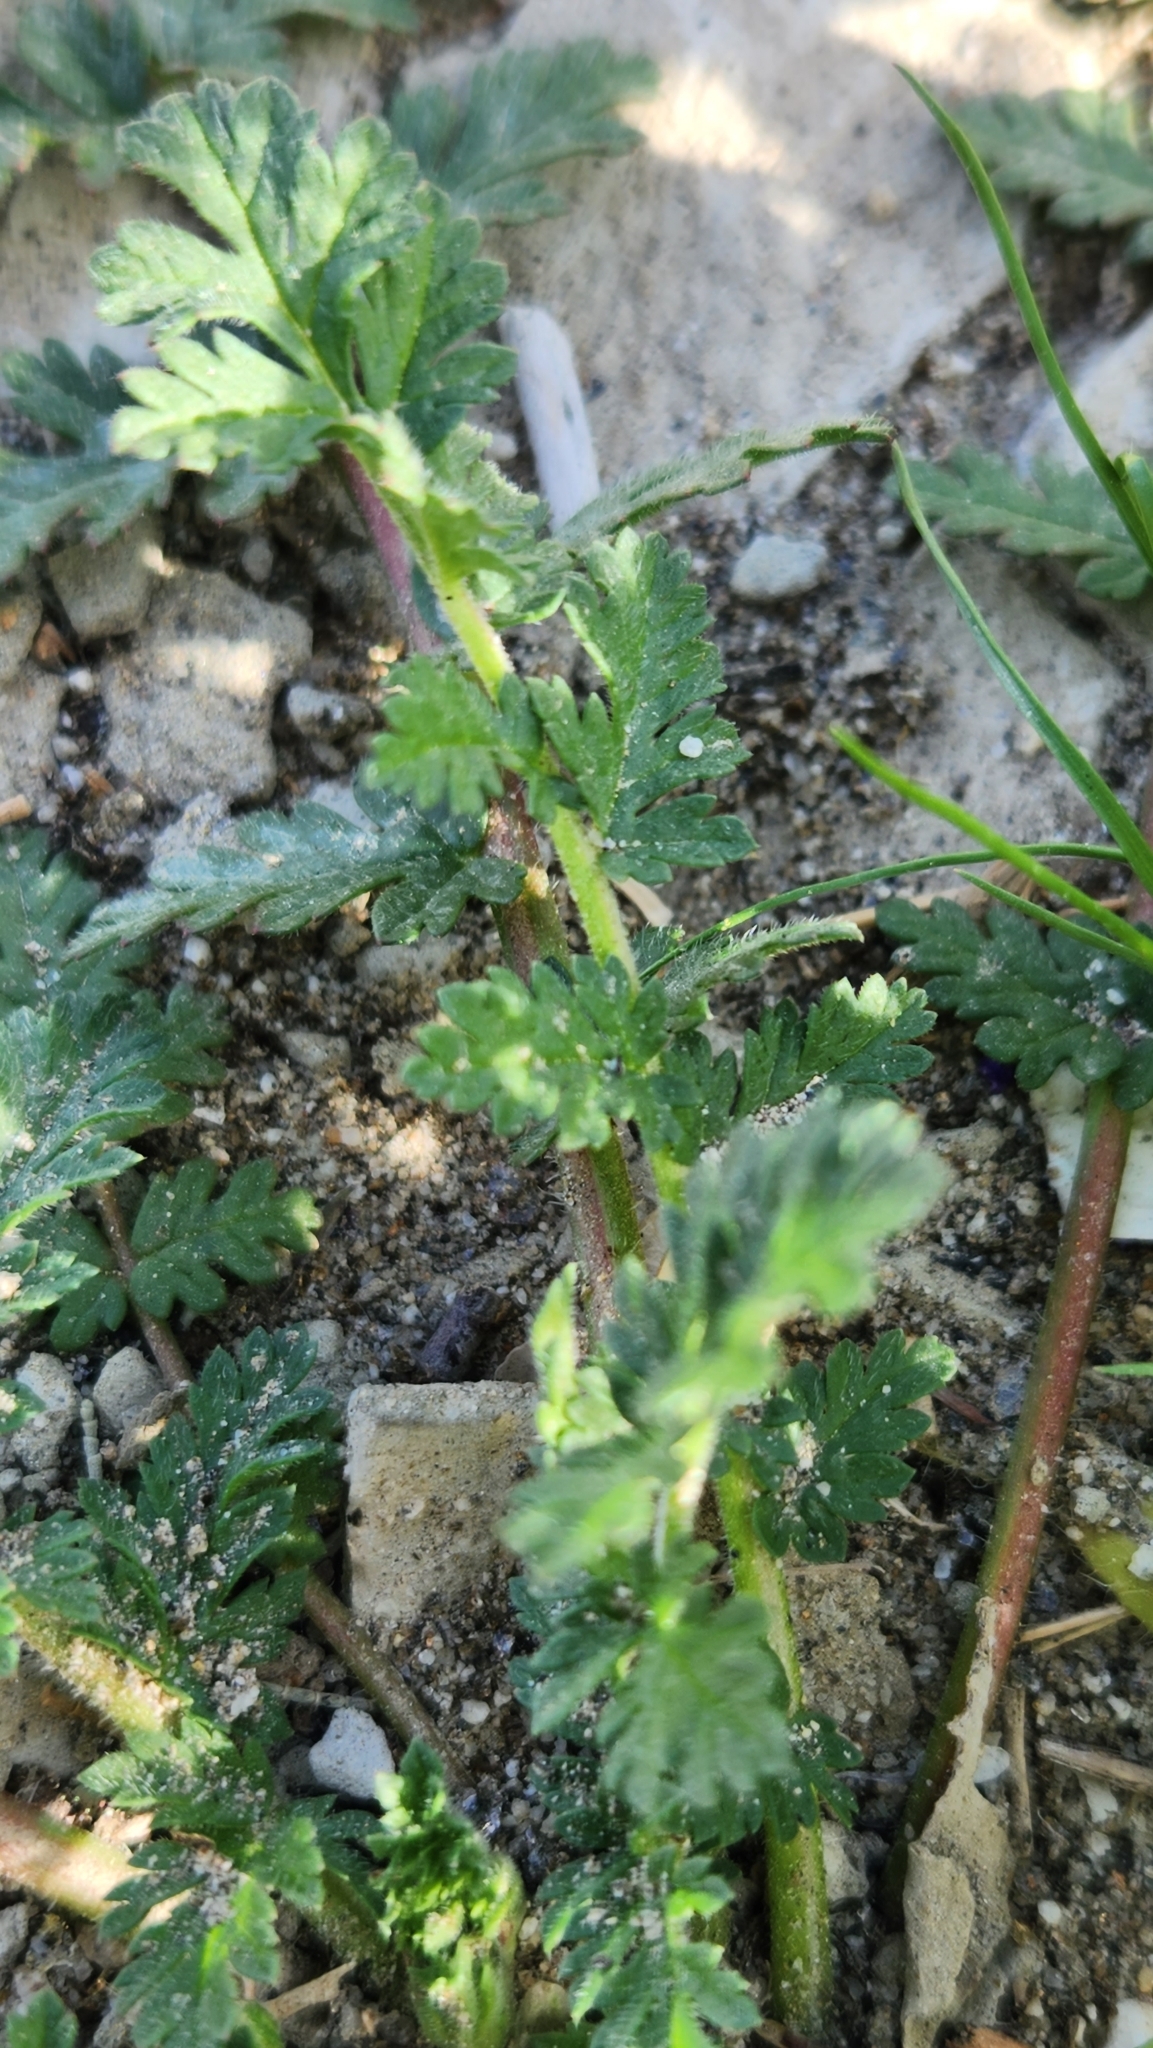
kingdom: Plantae
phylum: Tracheophyta
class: Magnoliopsida
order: Geraniales
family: Geraniaceae
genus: Erodium
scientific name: Erodium cicutarium
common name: Common stork's-bill
